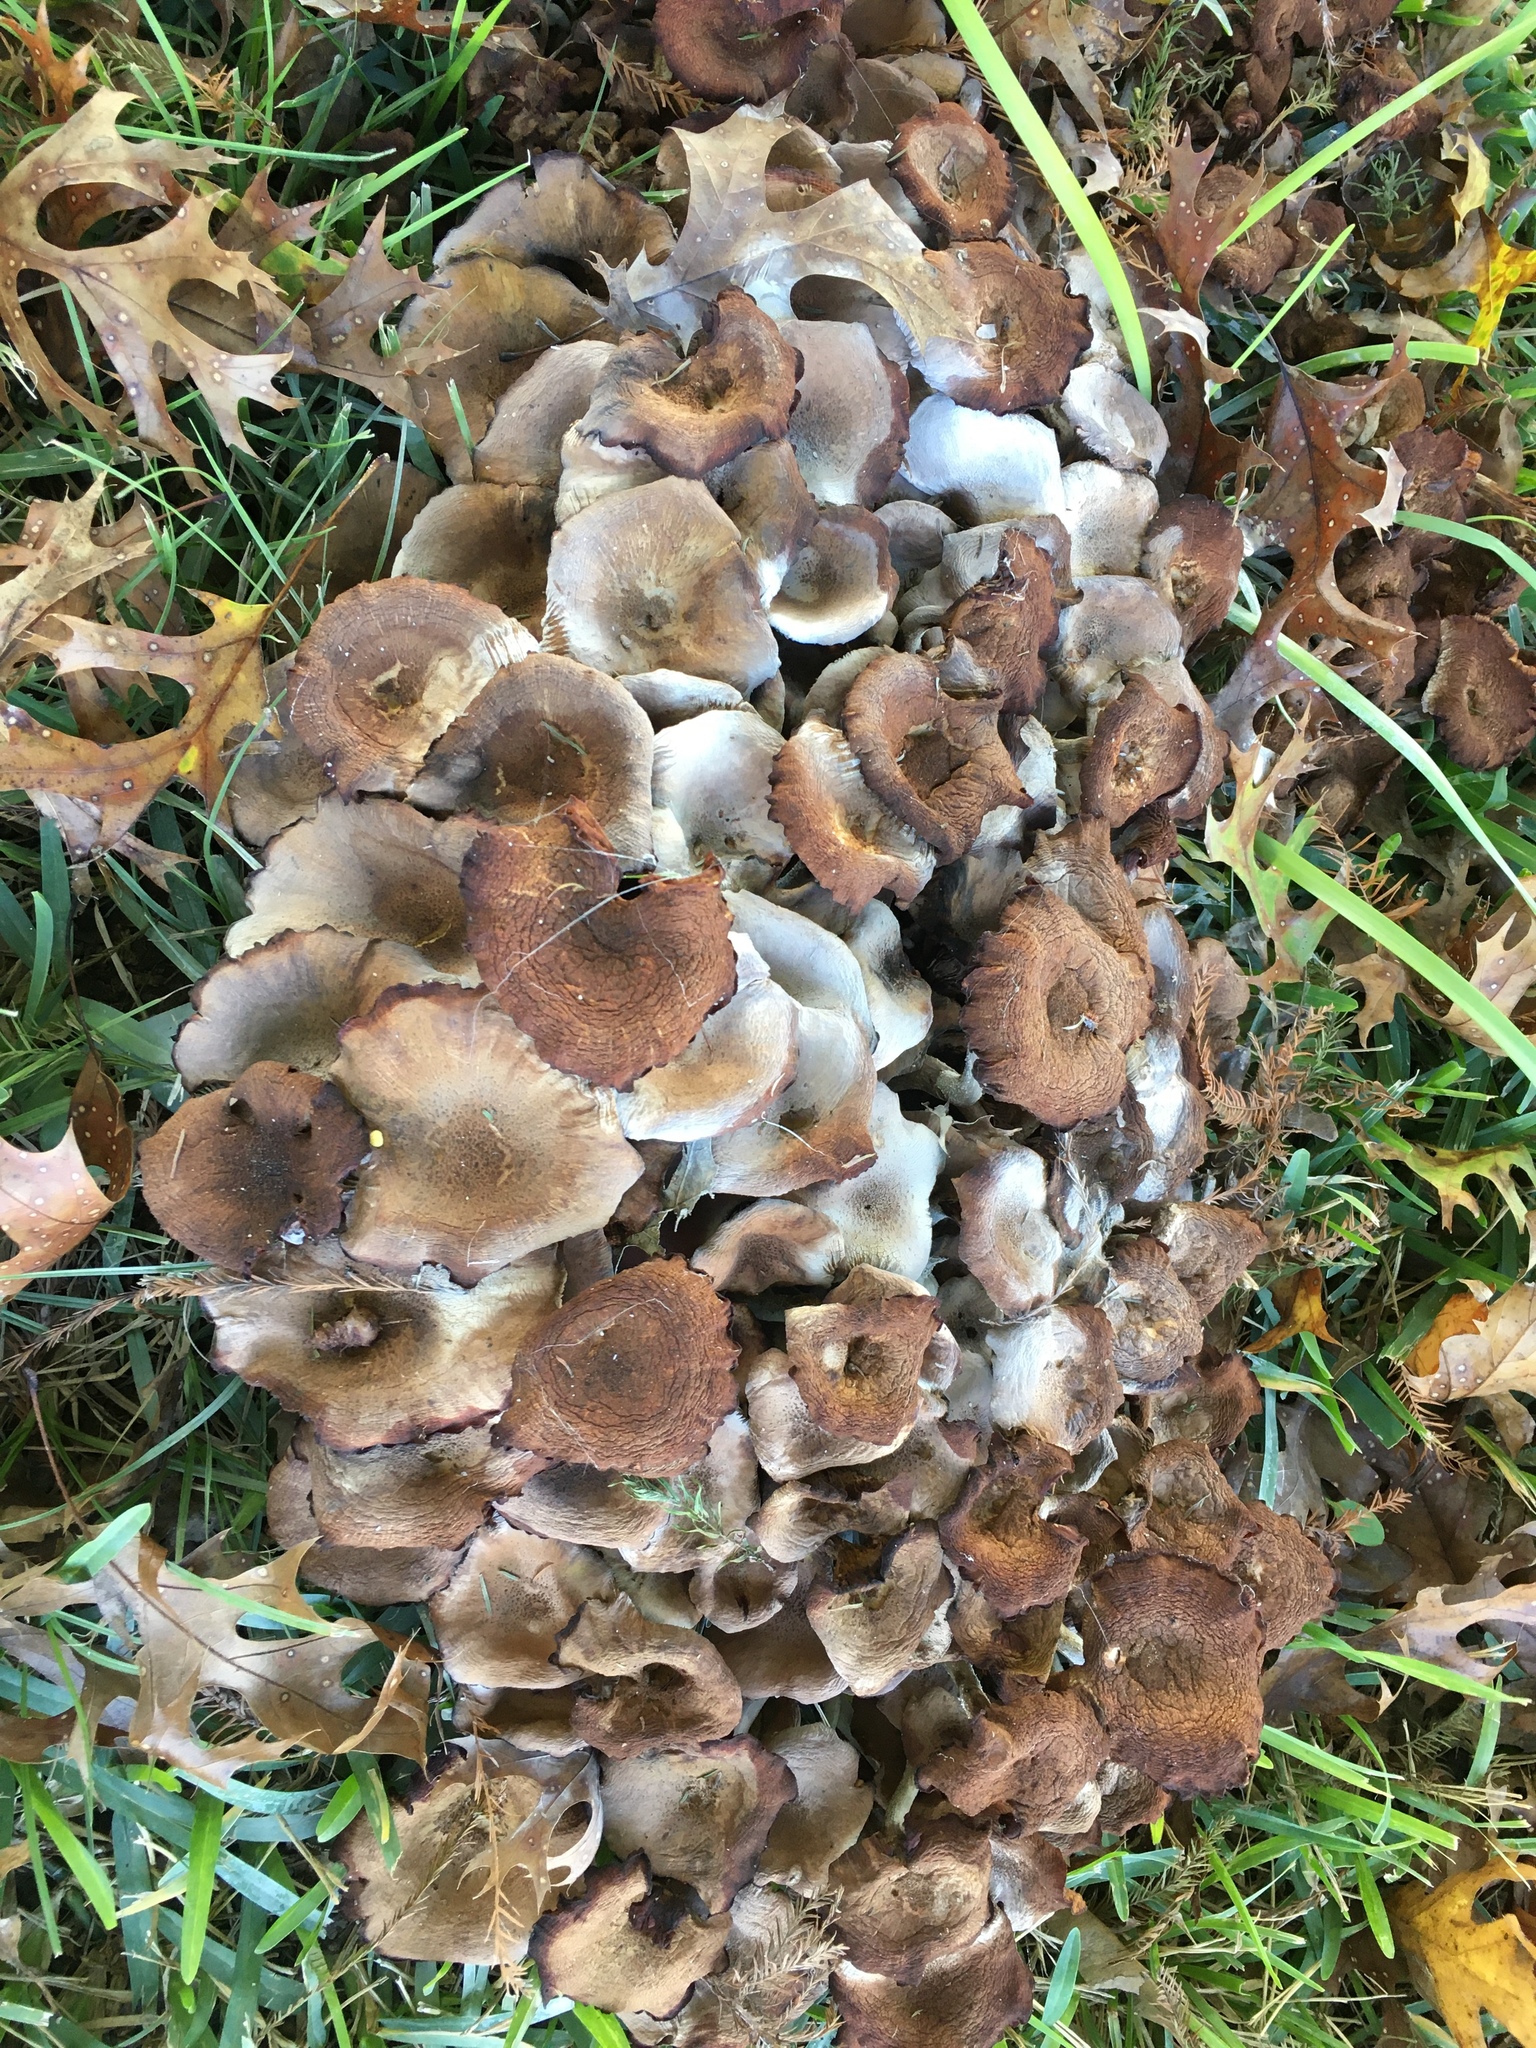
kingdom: Fungi
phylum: Basidiomycota
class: Agaricomycetes
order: Agaricales
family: Physalacriaceae
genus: Desarmillaria
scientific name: Desarmillaria caespitosa
